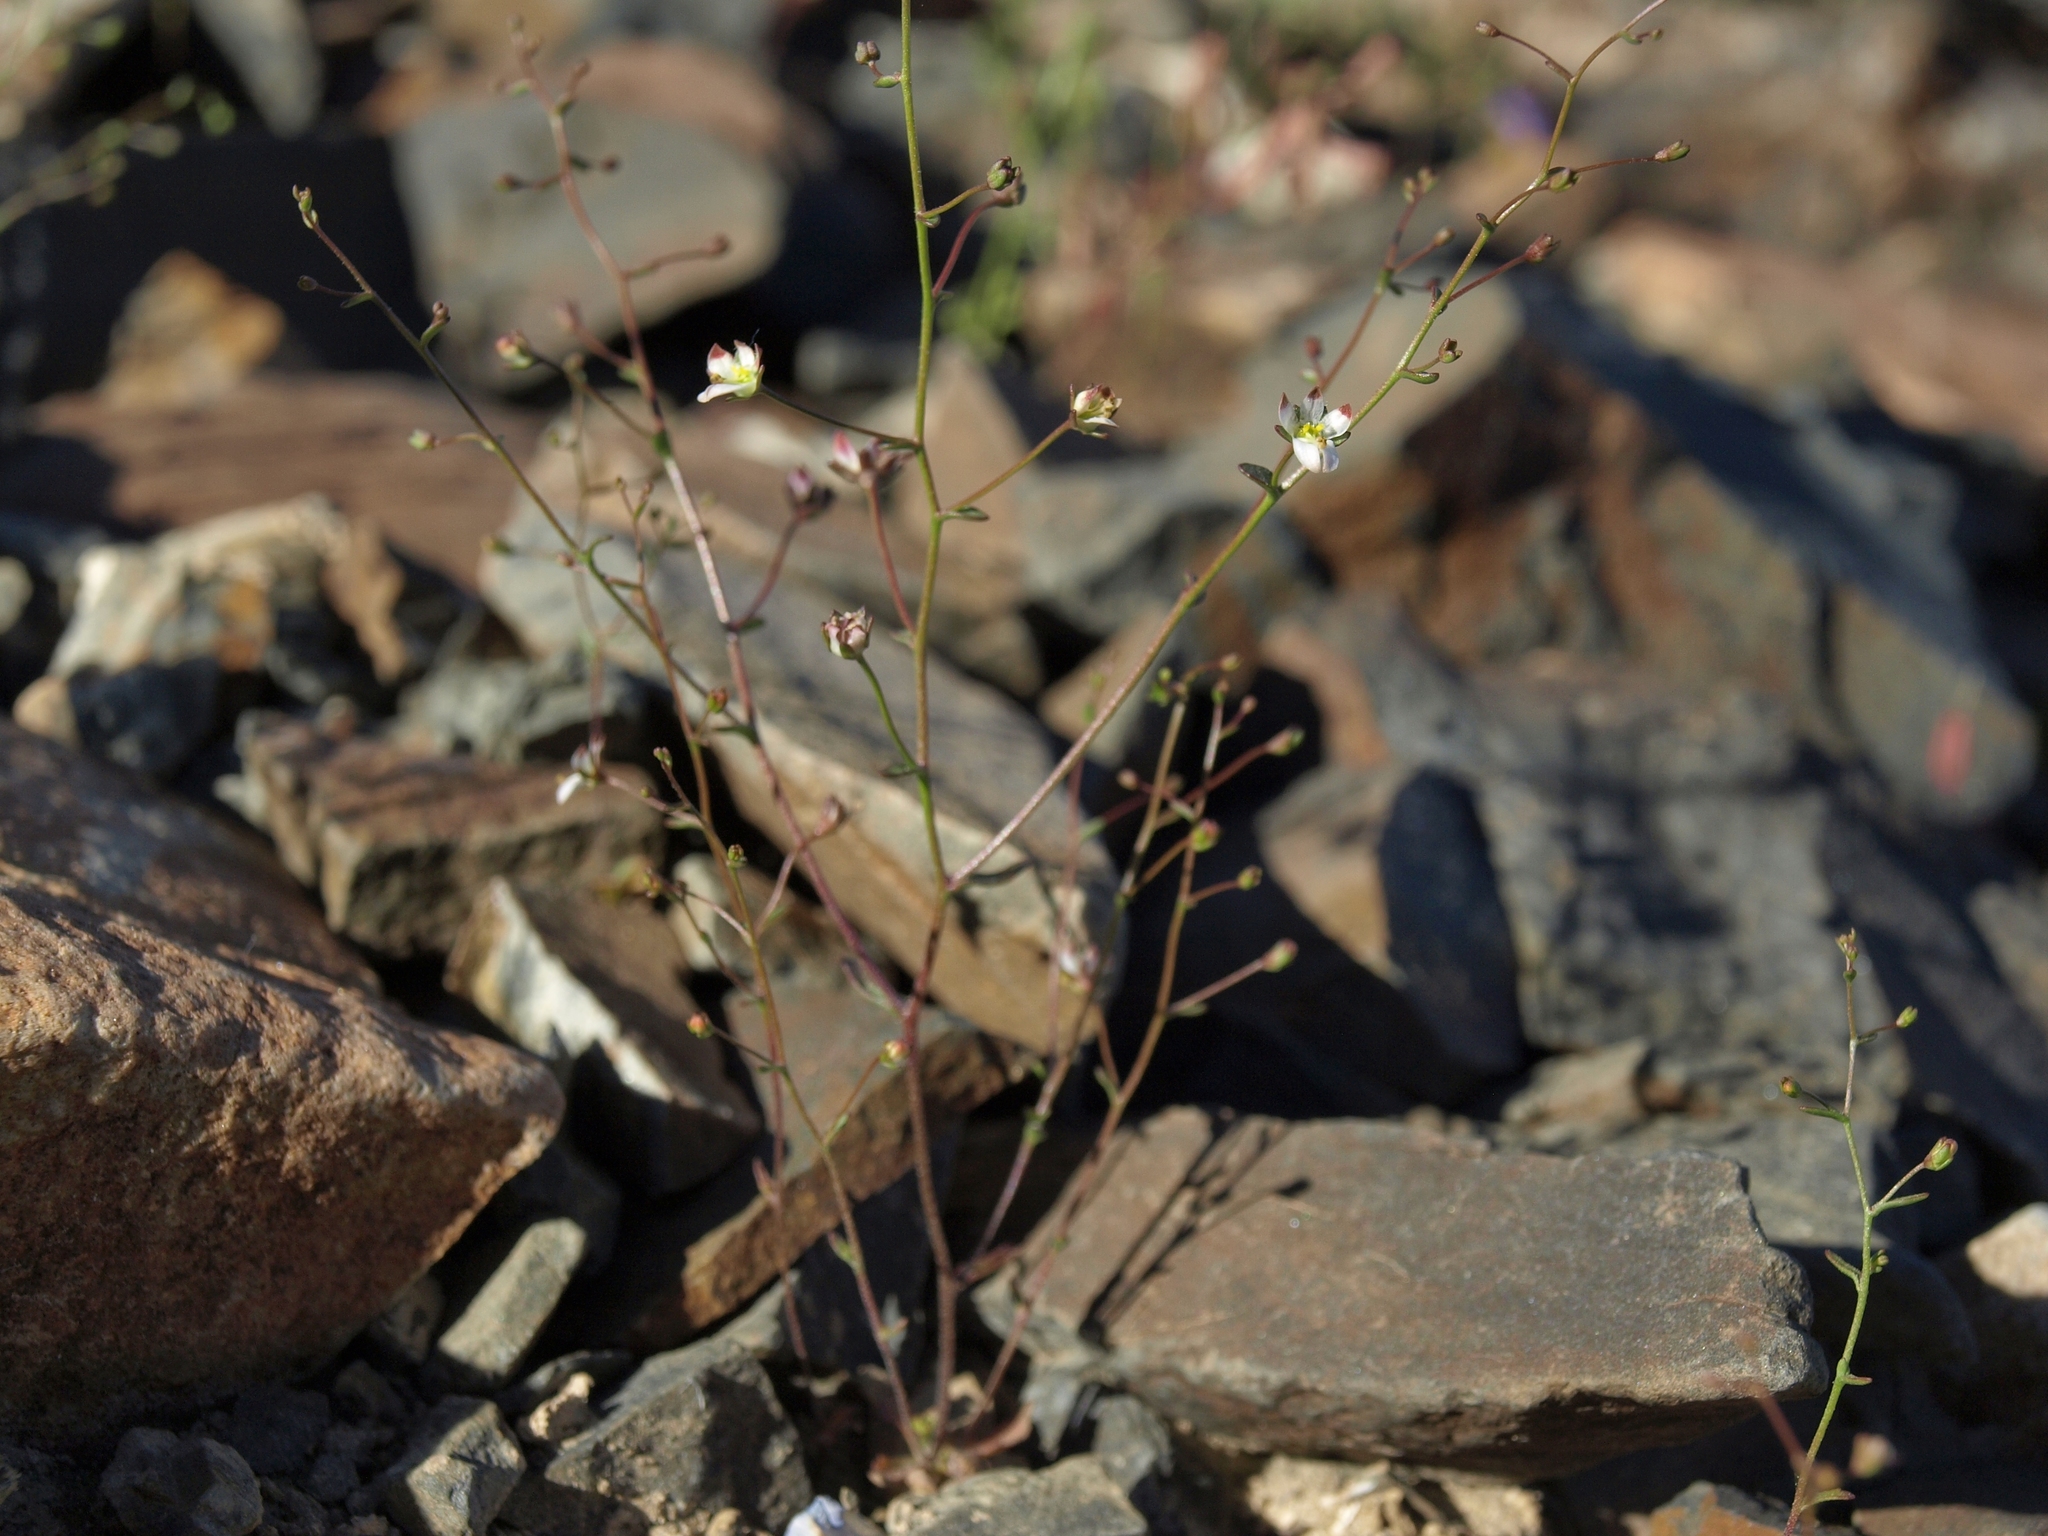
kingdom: Plantae
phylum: Tracheophyta
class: Magnoliopsida
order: Asterales
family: Campanulaceae
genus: Nemacladus
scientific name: Nemacladus orientalis
